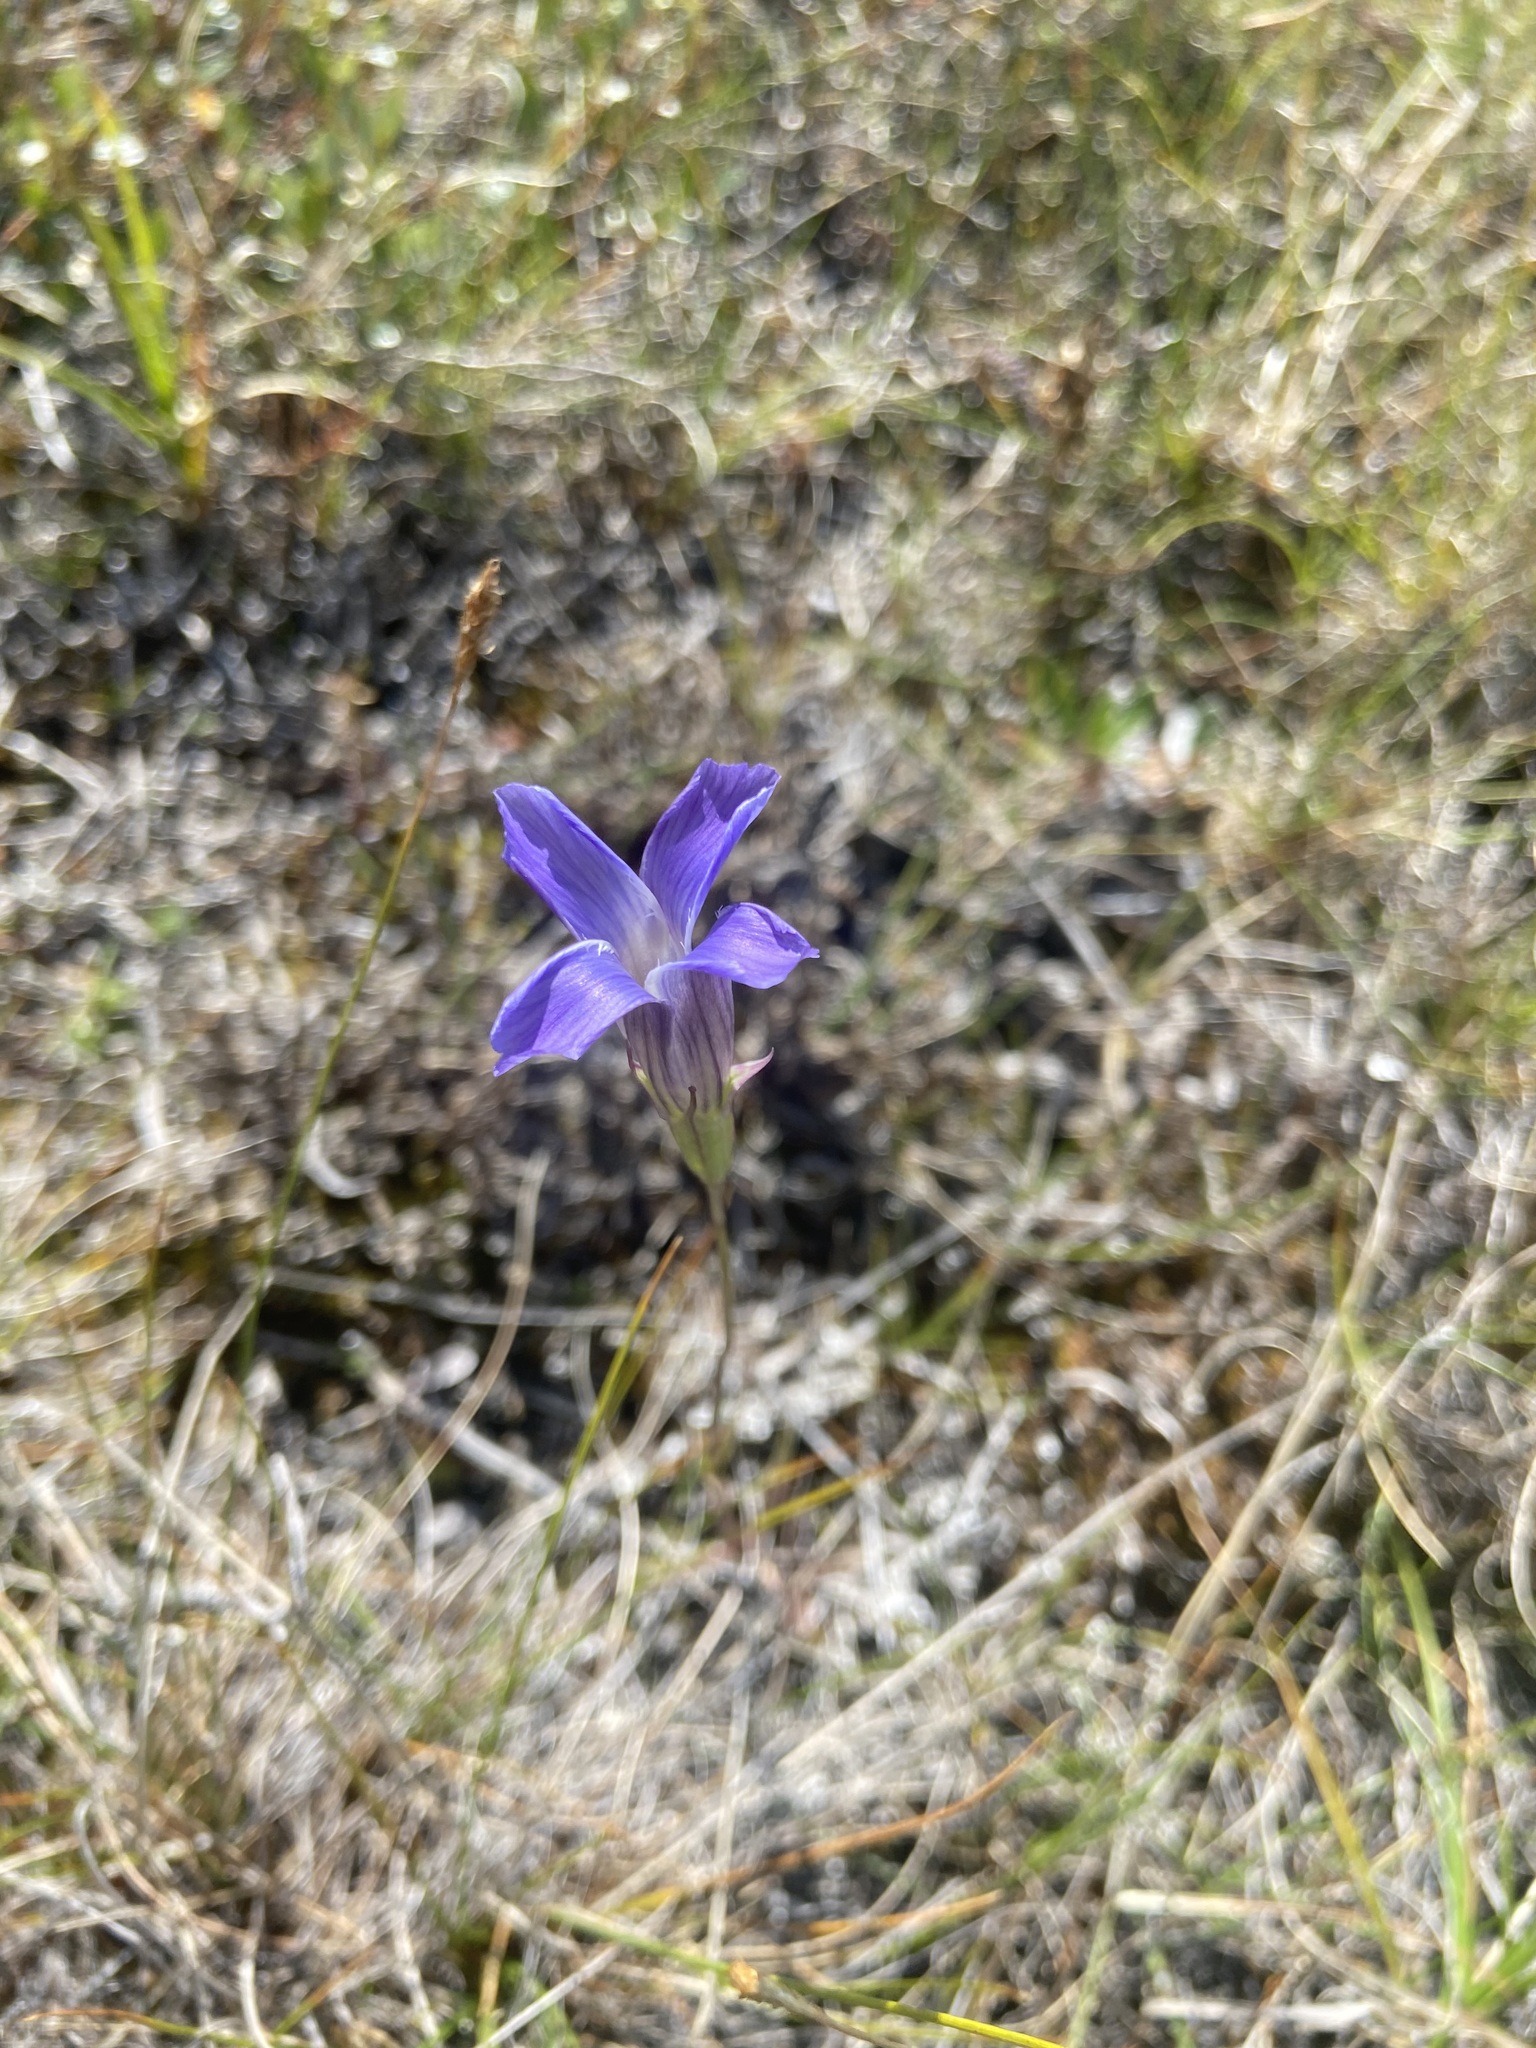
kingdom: Plantae
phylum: Tracheophyta
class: Magnoliopsida
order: Gentianales
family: Gentianaceae
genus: Gentianopsis
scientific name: Gentianopsis barbata
